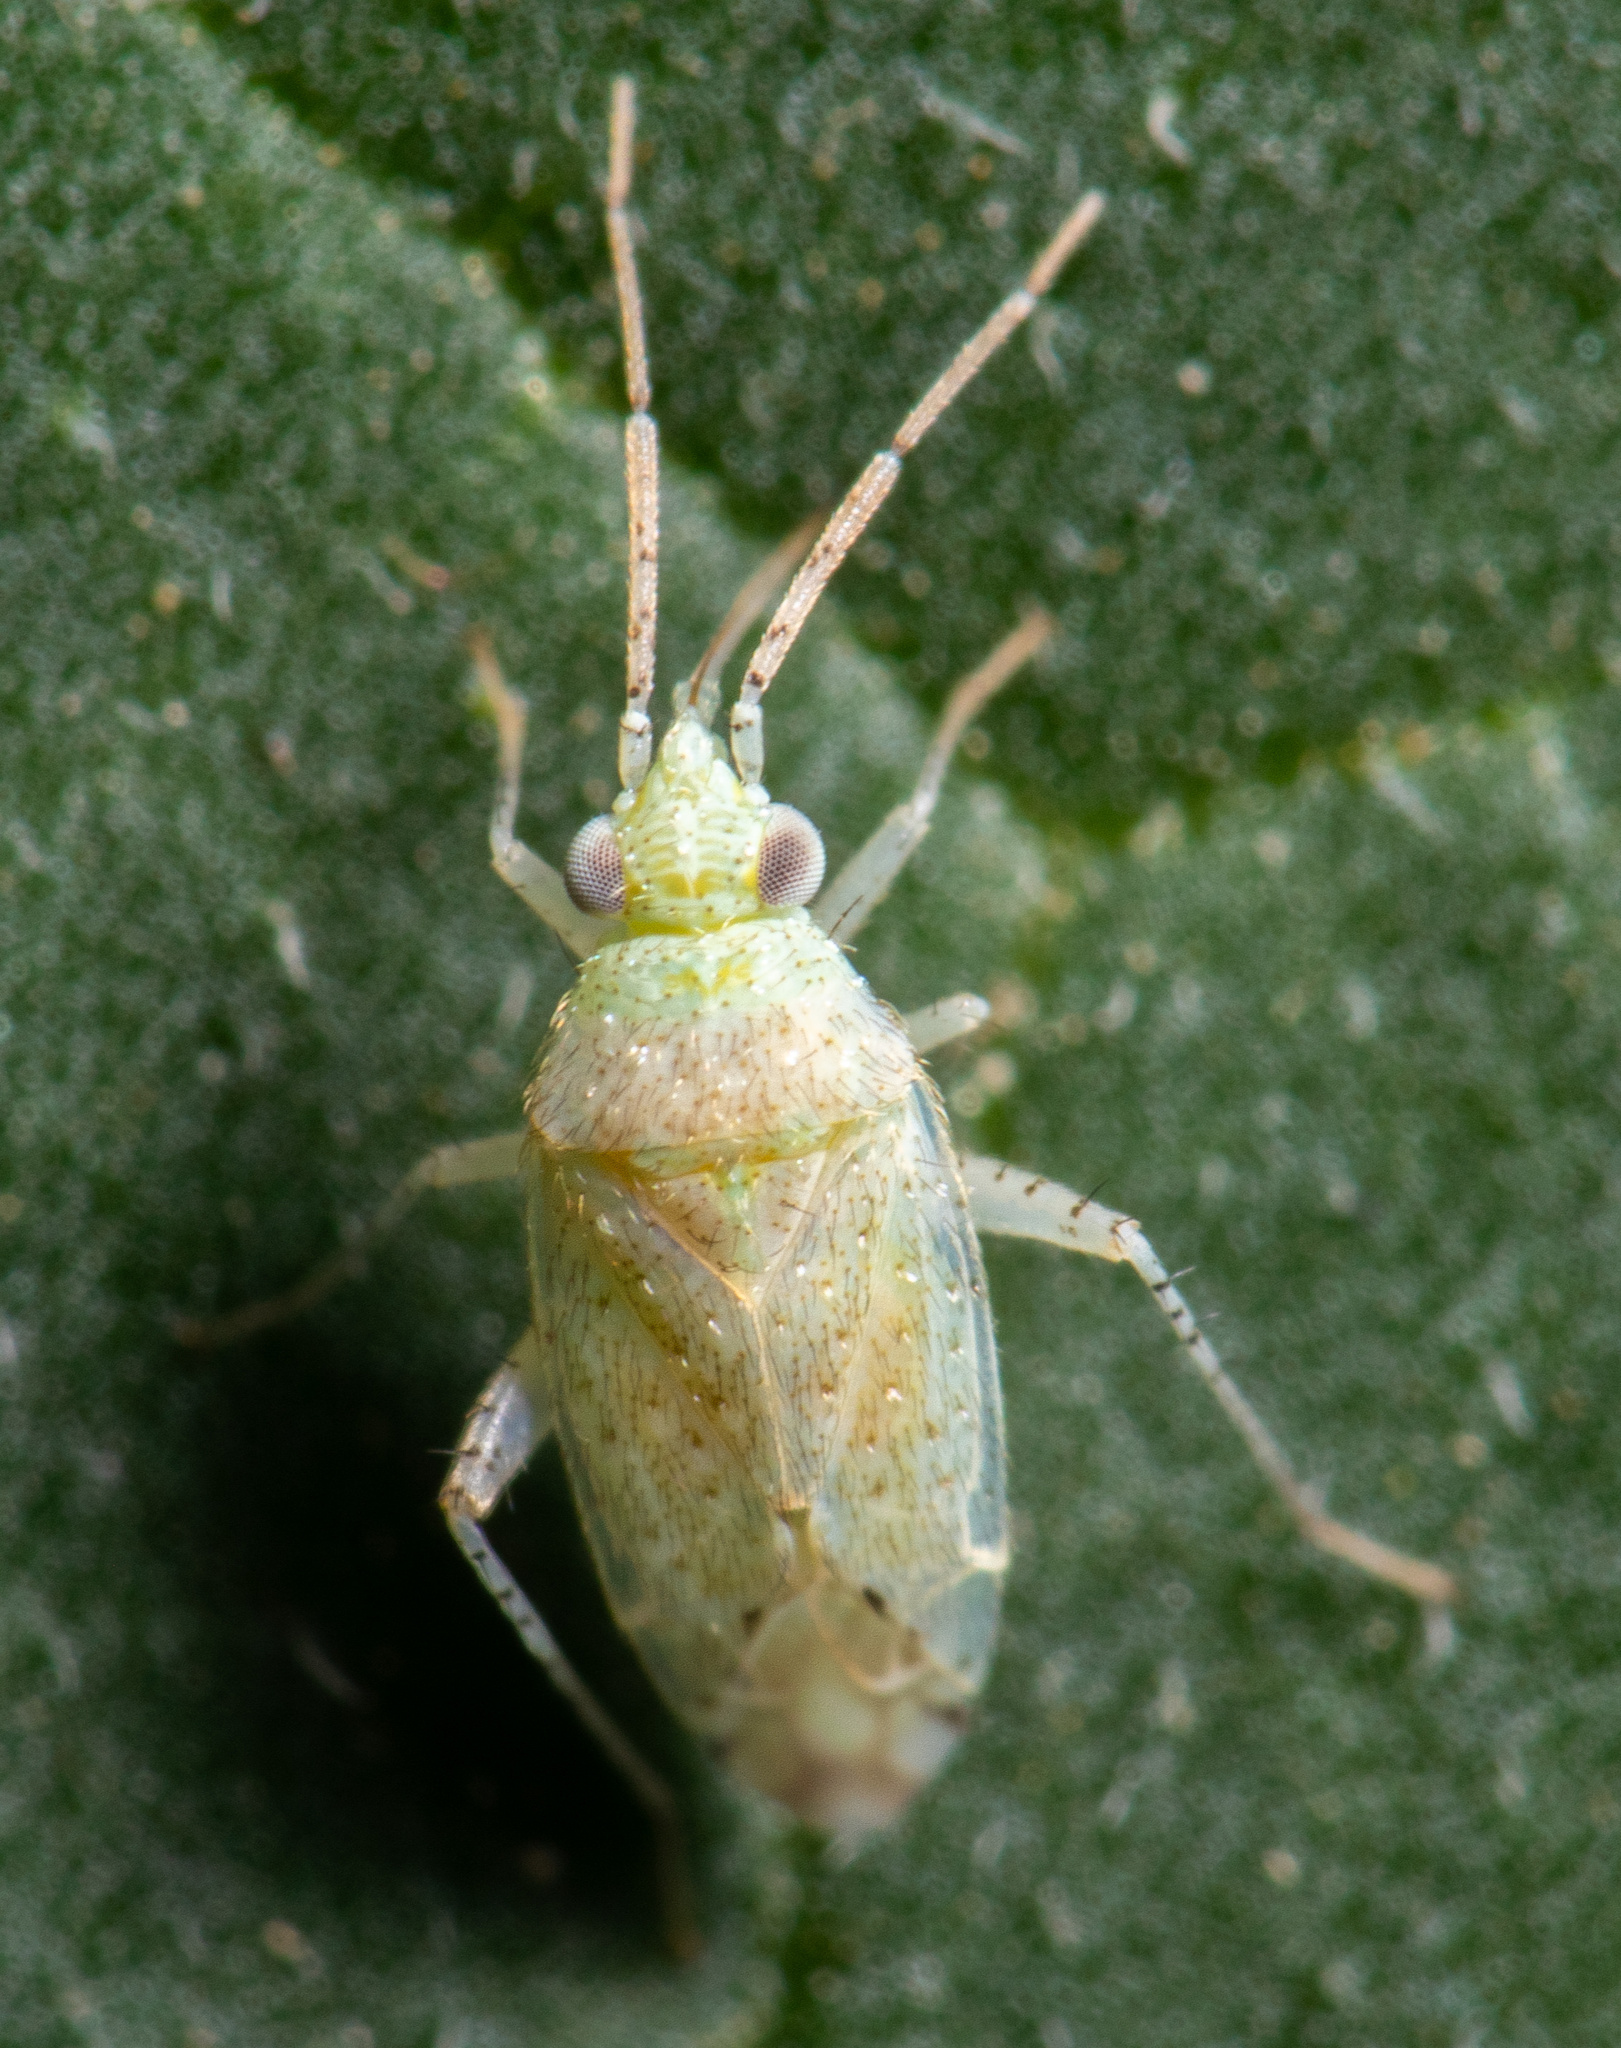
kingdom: Animalia
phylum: Arthropoda
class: Insecta
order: Hemiptera
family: Miridae
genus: Pseudatomoscelis
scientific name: Pseudatomoscelis seriatus
